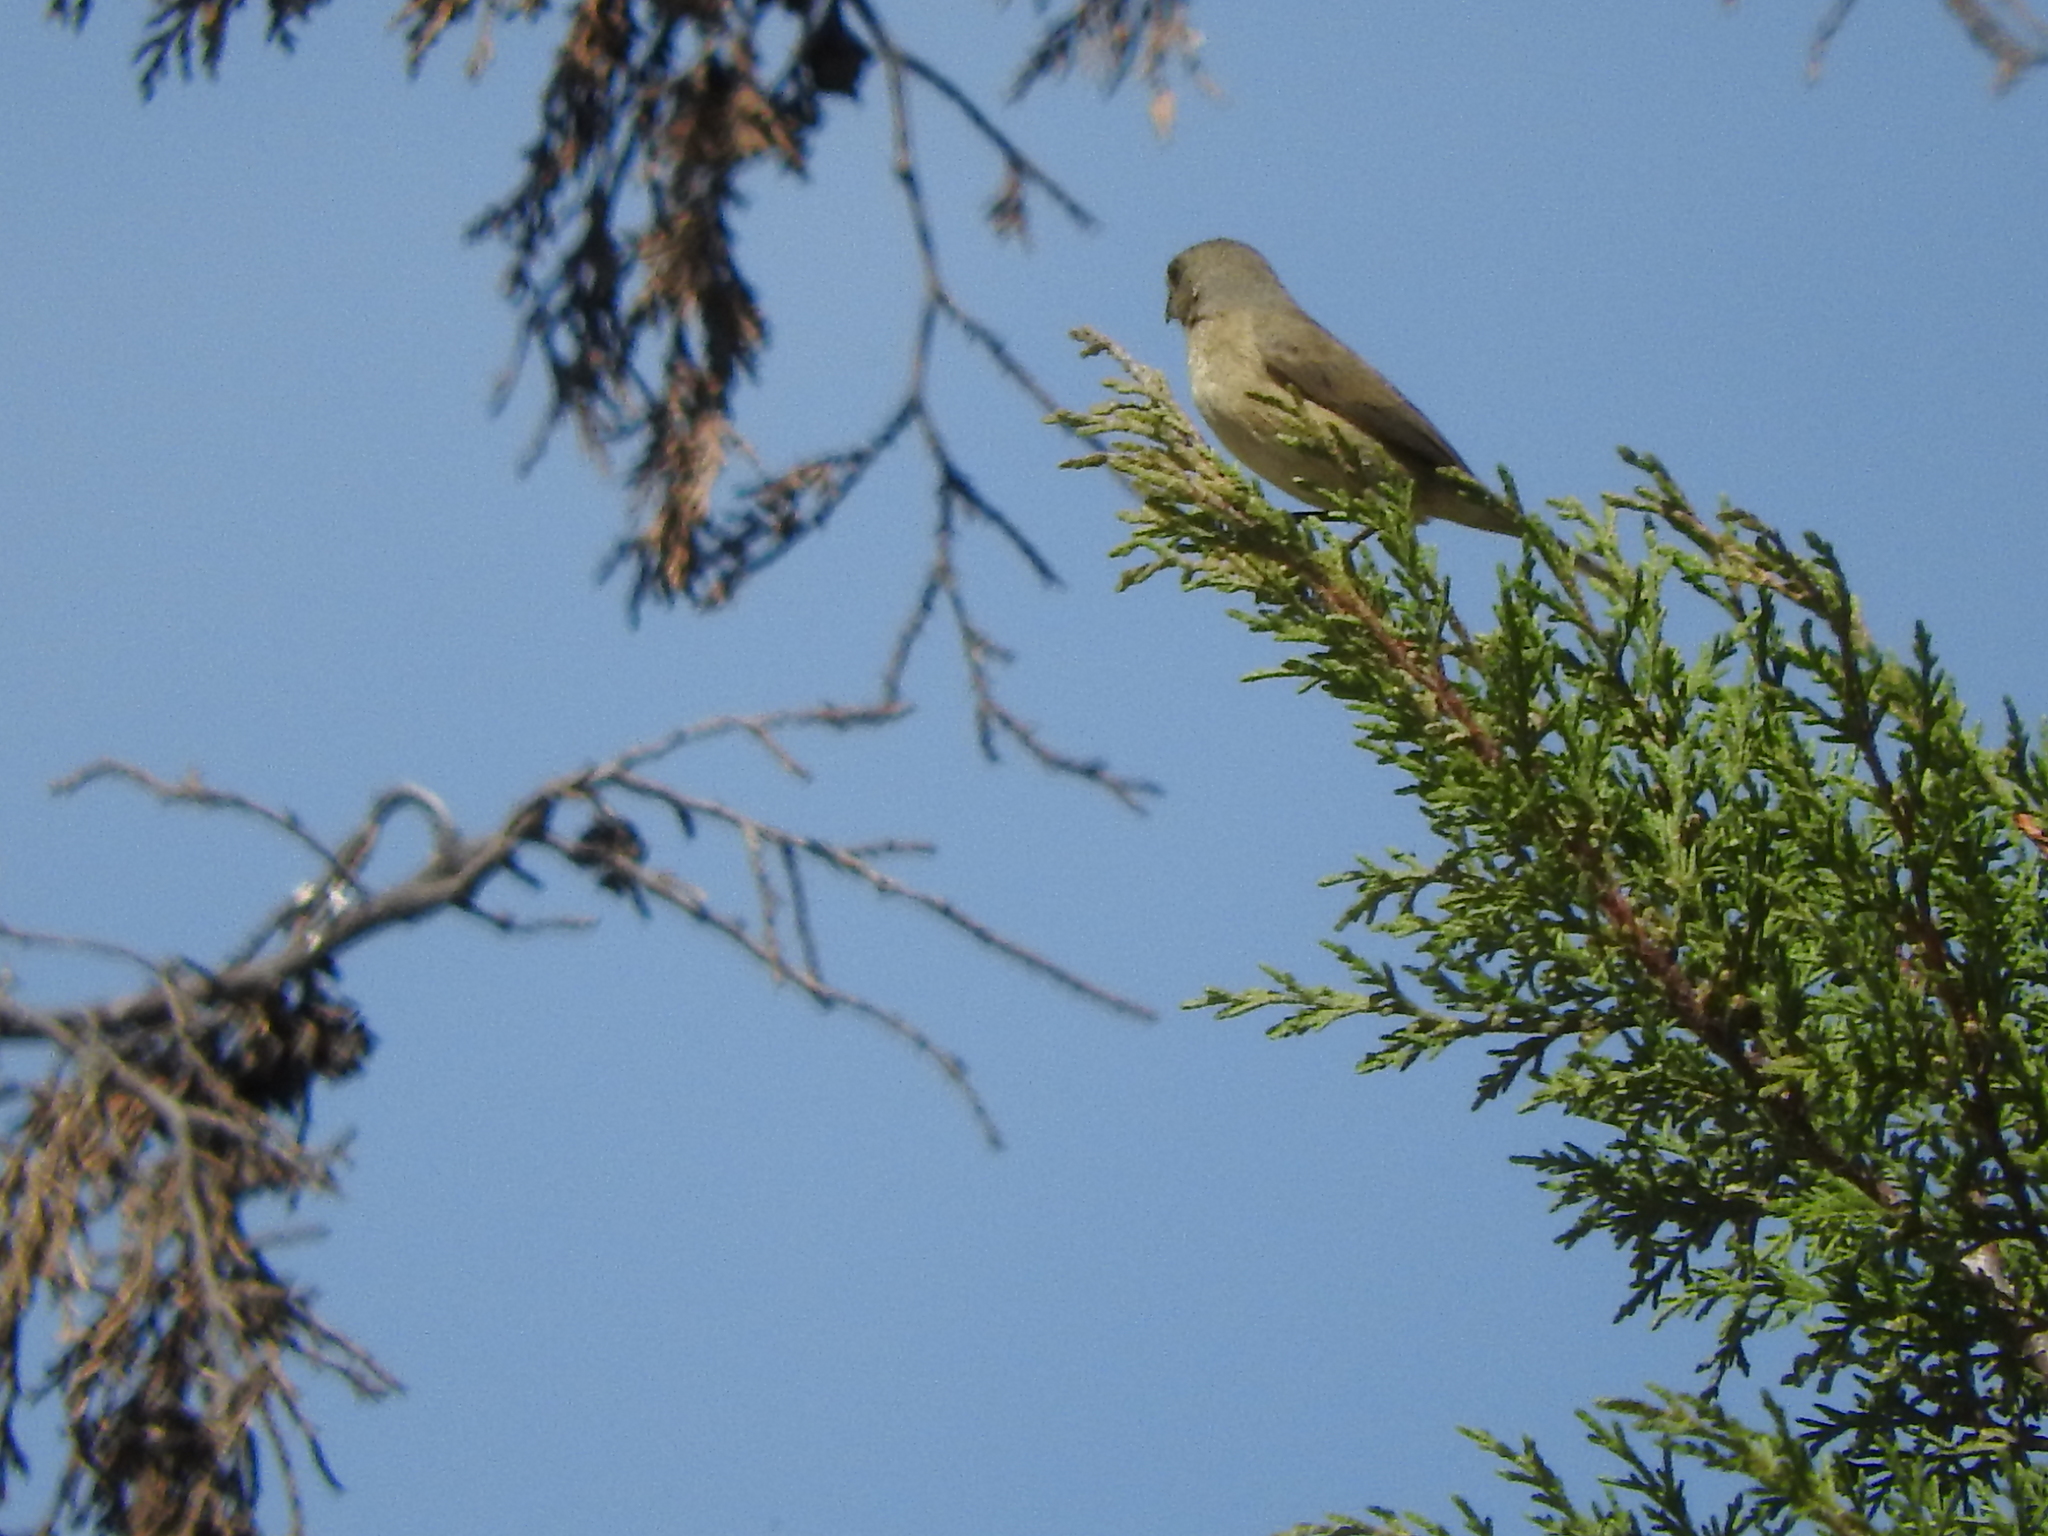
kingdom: Animalia
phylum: Chordata
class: Aves
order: Passeriformes
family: Thraupidae
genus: Sporophila
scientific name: Sporophila torqueola
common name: White-collared seedeater
